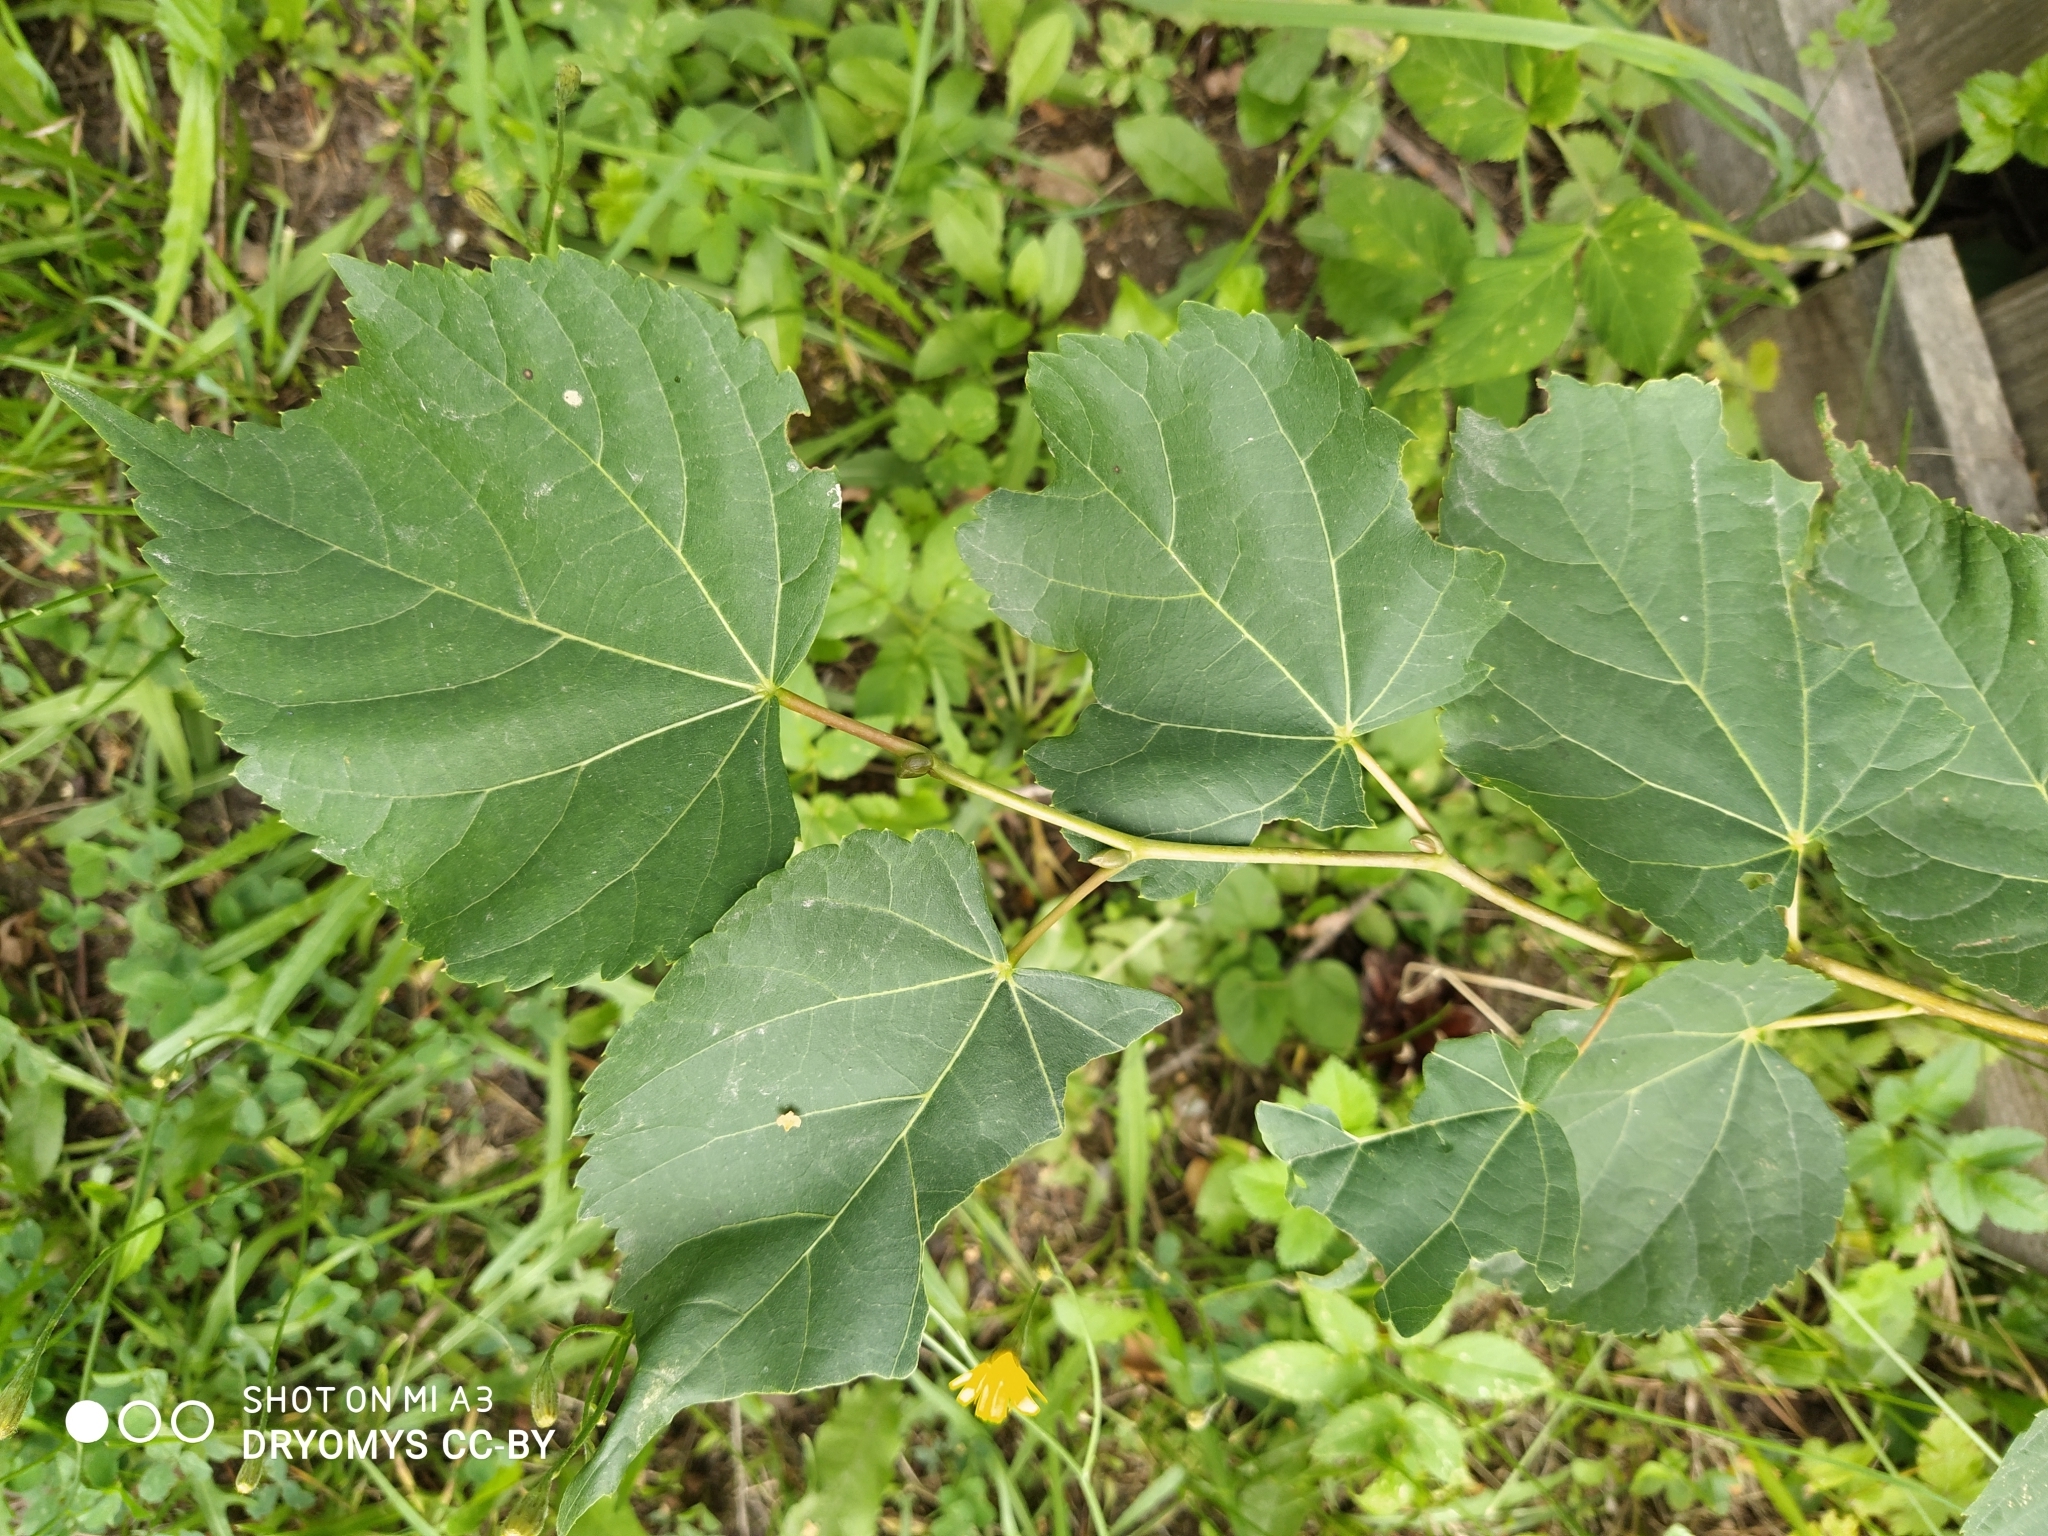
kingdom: Plantae
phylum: Tracheophyta
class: Magnoliopsida
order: Malvales
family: Malvaceae
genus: Tilia
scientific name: Tilia cordata
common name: Small-leaved lime
